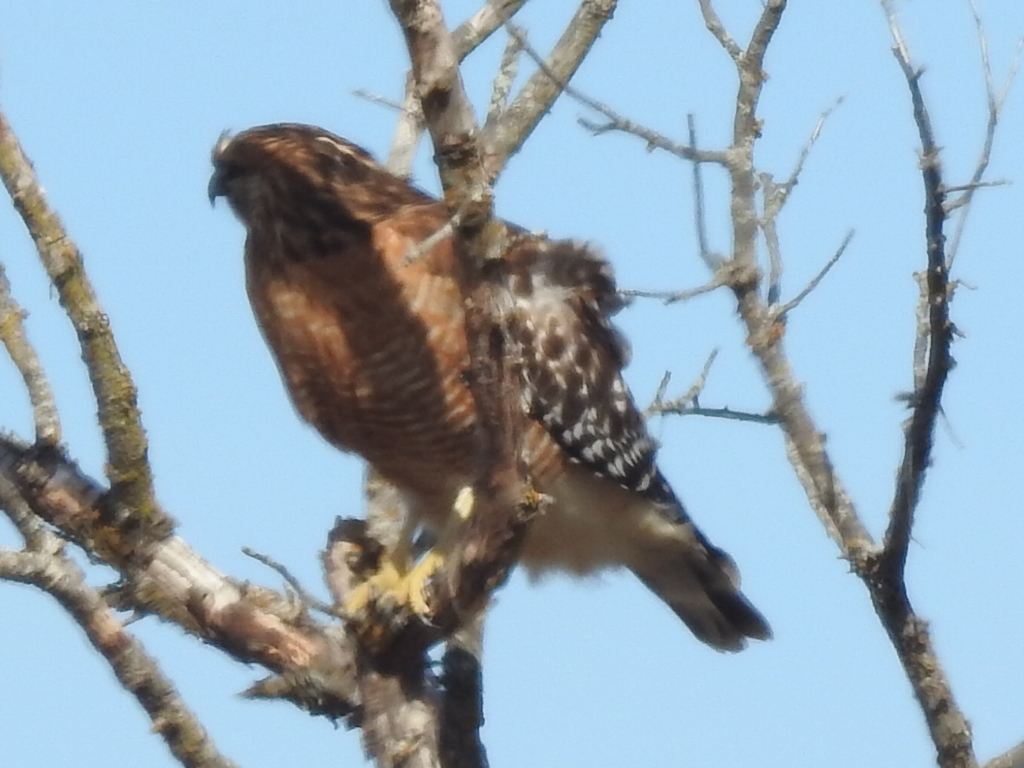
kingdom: Animalia
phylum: Chordata
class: Aves
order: Accipitriformes
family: Accipitridae
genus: Buteo
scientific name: Buteo lineatus
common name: Red-shouldered hawk
